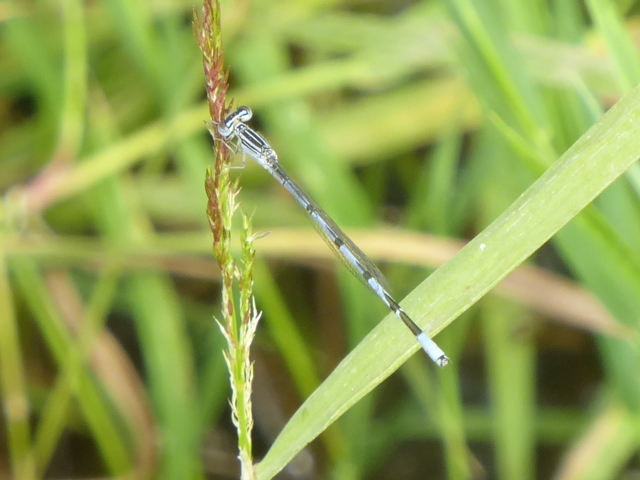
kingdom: Animalia
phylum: Arthropoda
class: Insecta
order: Odonata
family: Coenagrionidae
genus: Enallagma
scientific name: Enallagma basidens
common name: Double-striped bluet
